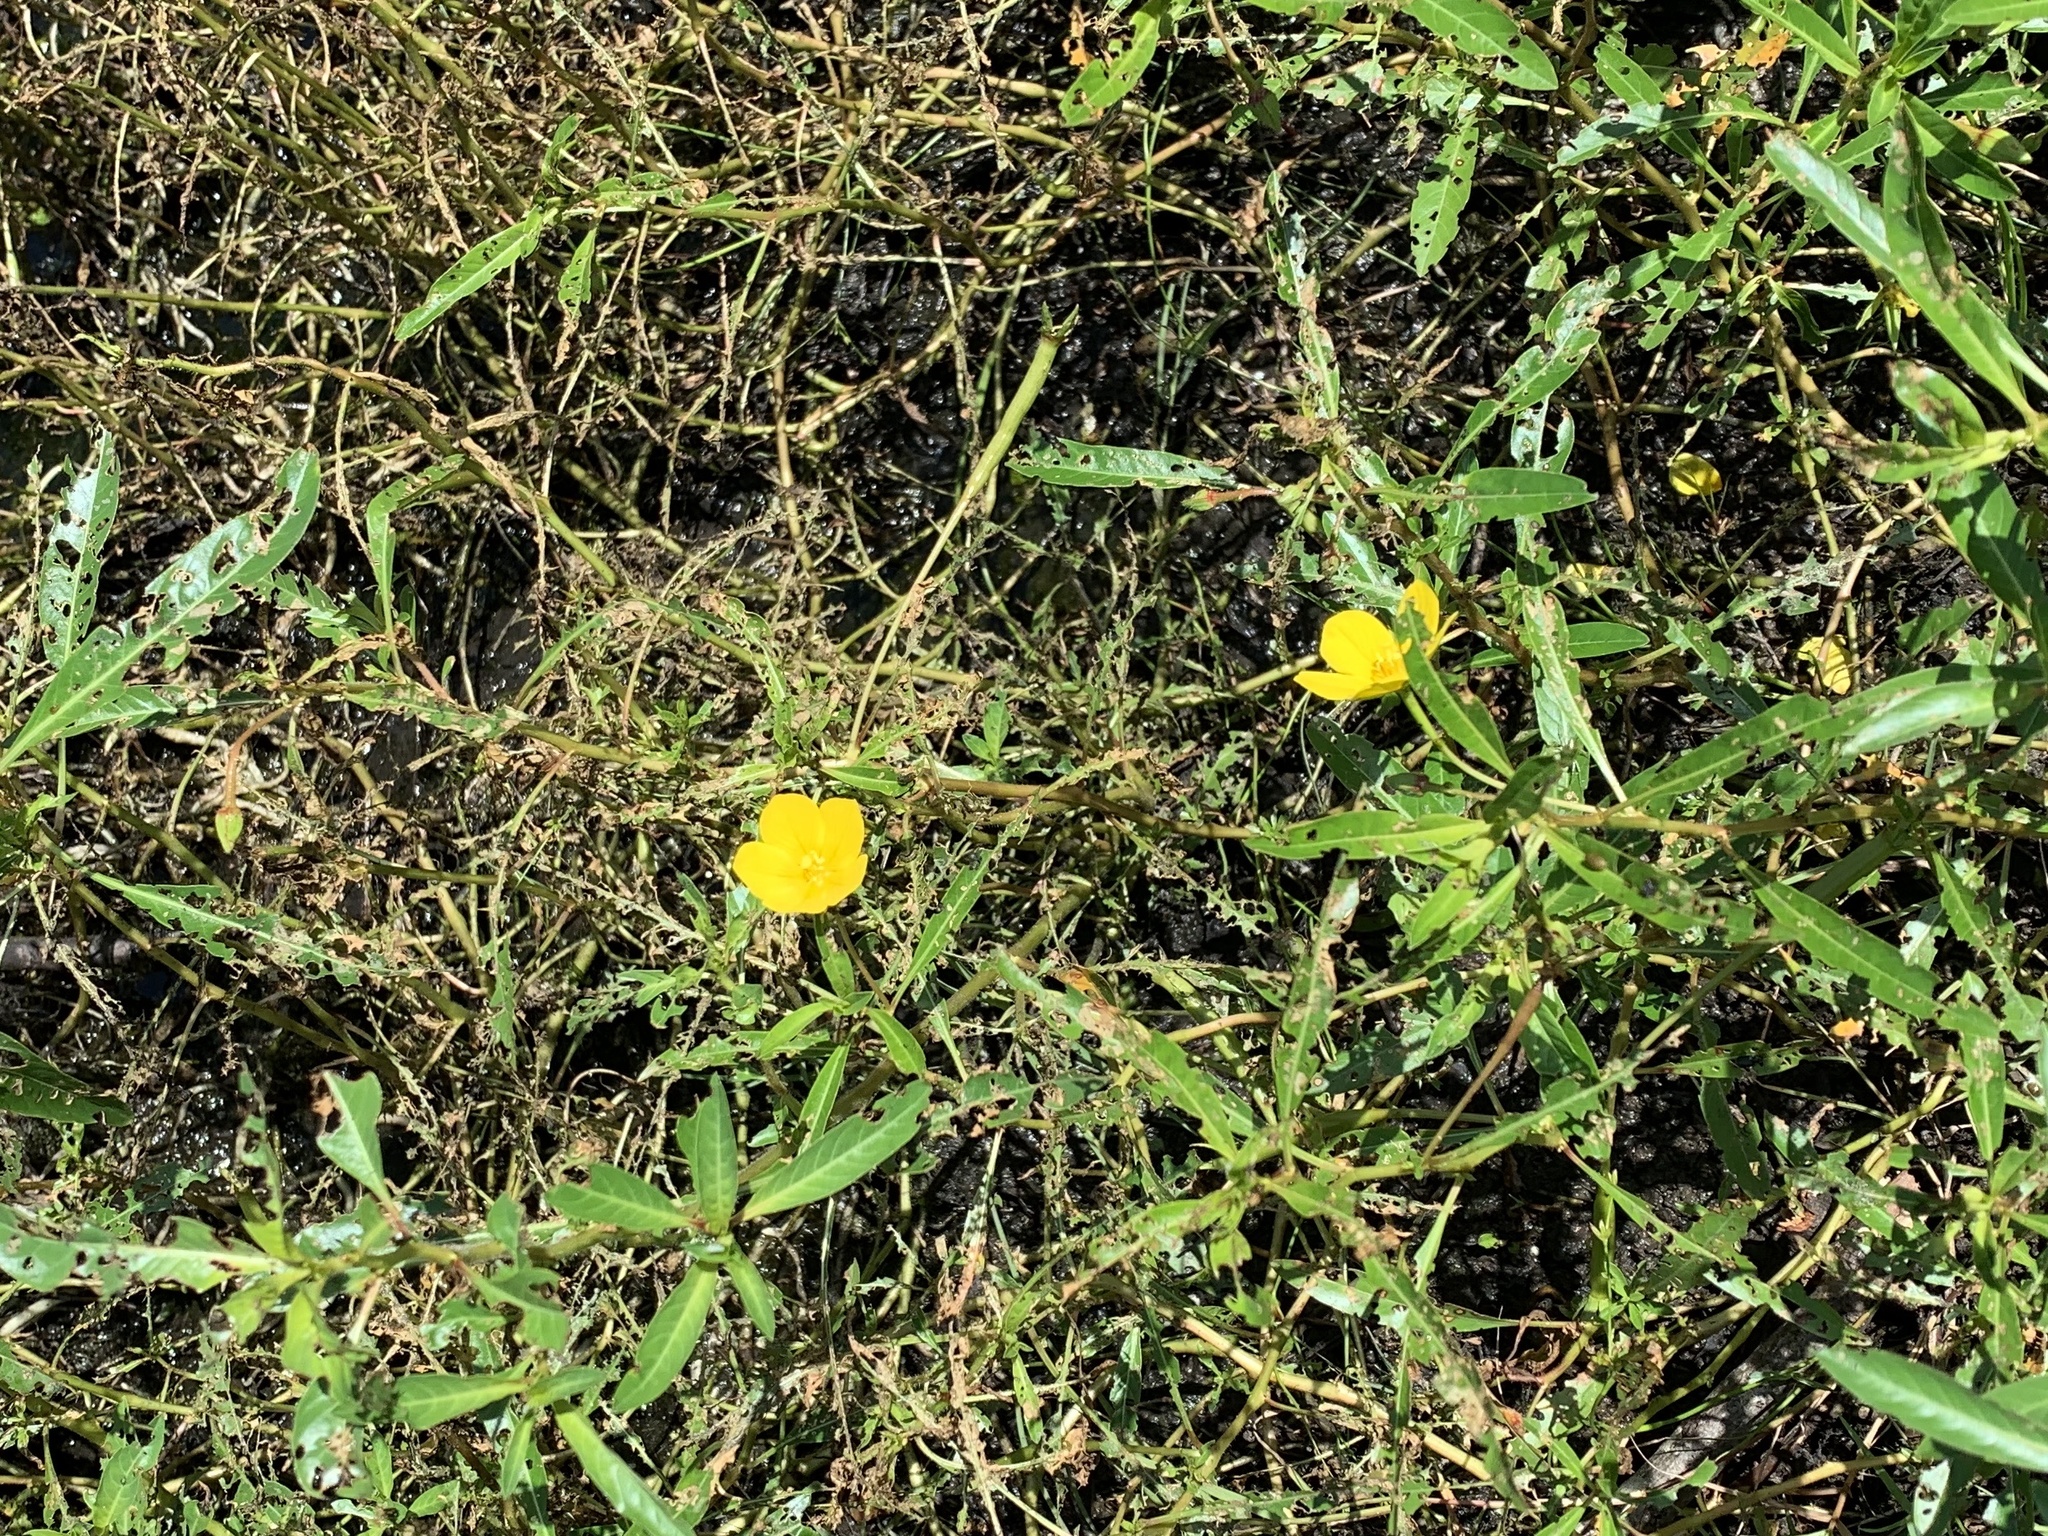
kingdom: Plantae
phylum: Tracheophyta
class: Magnoliopsida
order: Myrtales
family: Onagraceae
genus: Ludwigia
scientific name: Ludwigia peploides
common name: Floating primrose-willow
